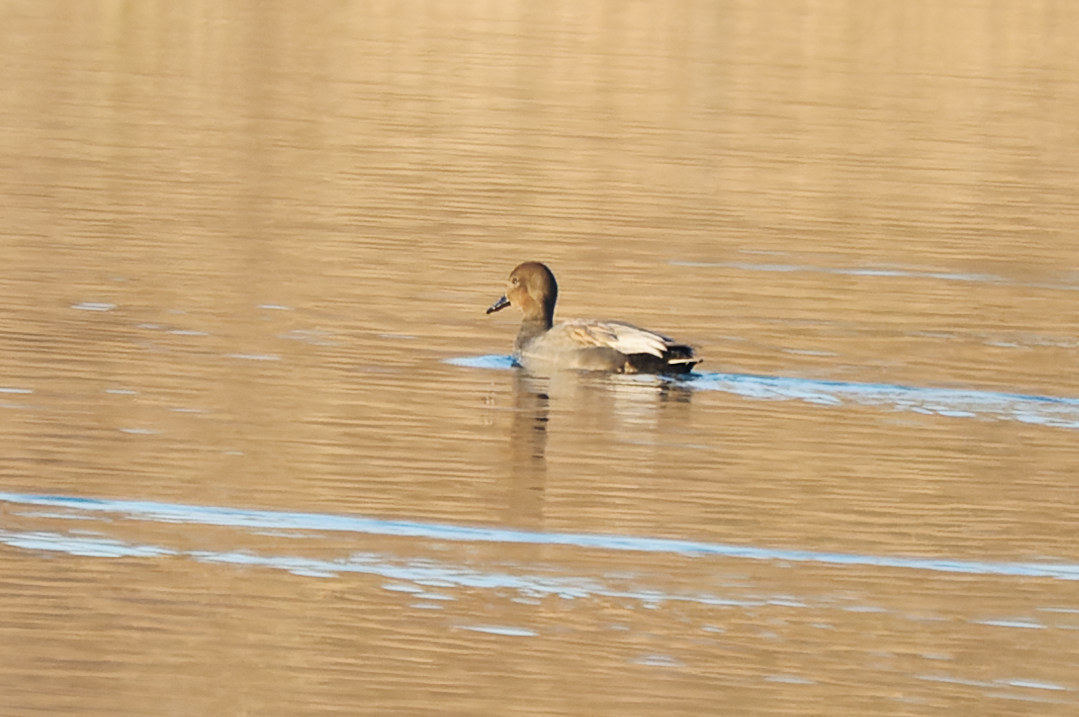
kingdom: Animalia
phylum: Chordata
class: Aves
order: Anseriformes
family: Anatidae
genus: Mareca
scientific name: Mareca strepera
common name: Gadwall
